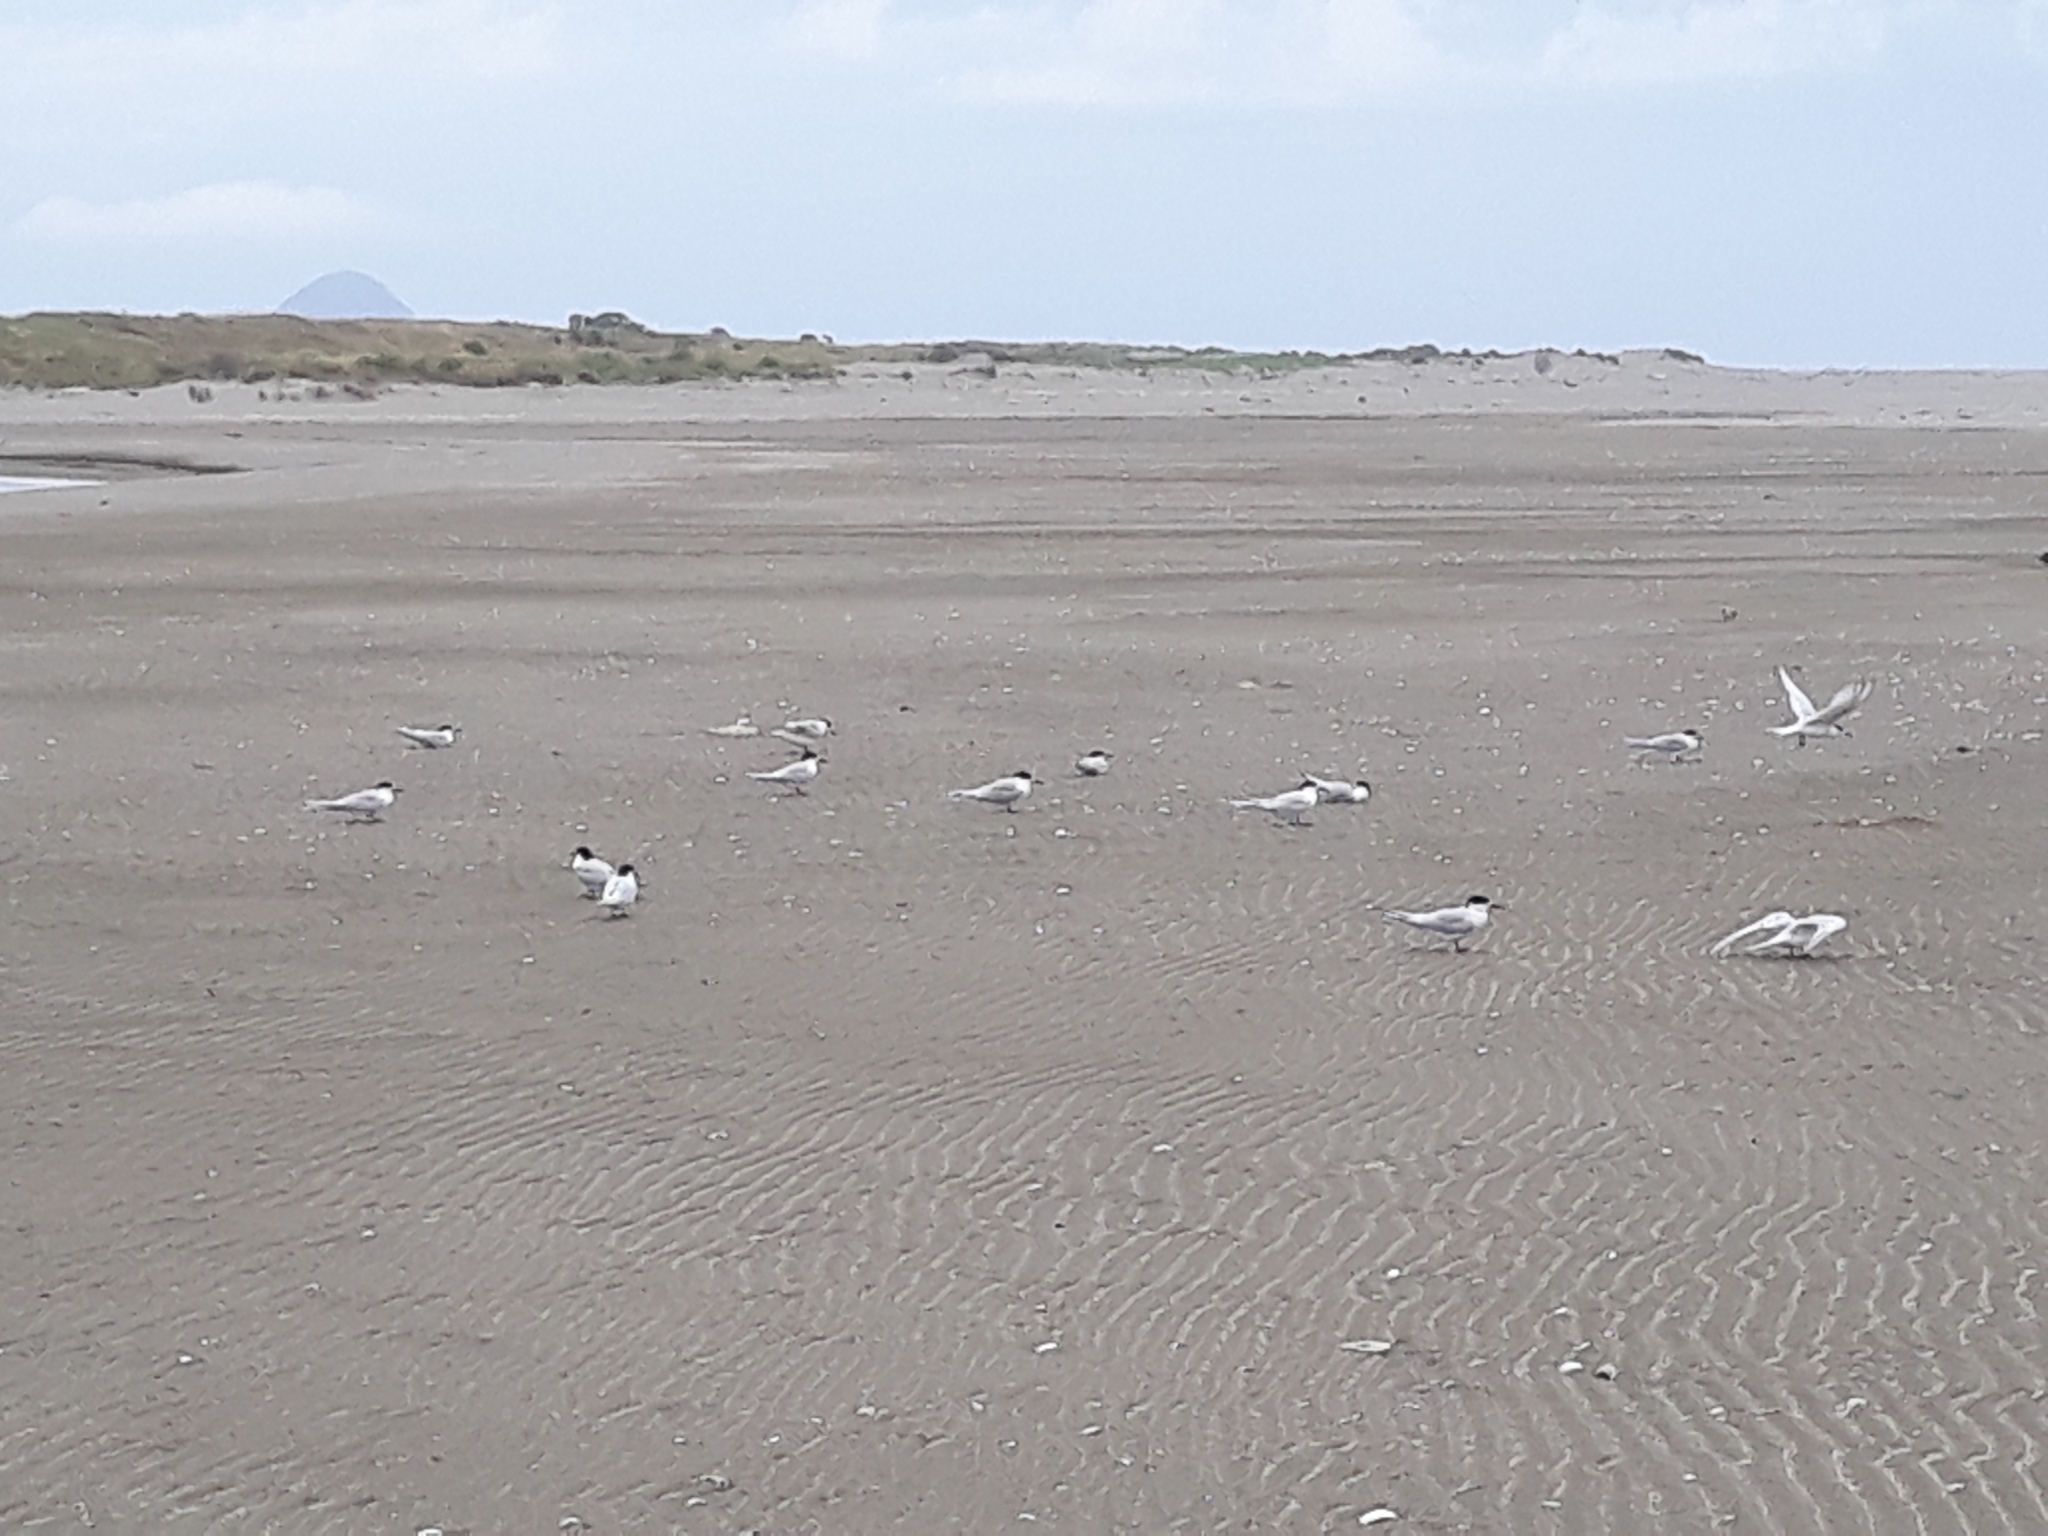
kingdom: Animalia
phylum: Chordata
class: Aves
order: Charadriiformes
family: Laridae
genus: Sterna
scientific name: Sterna striata
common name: White-fronted tern
